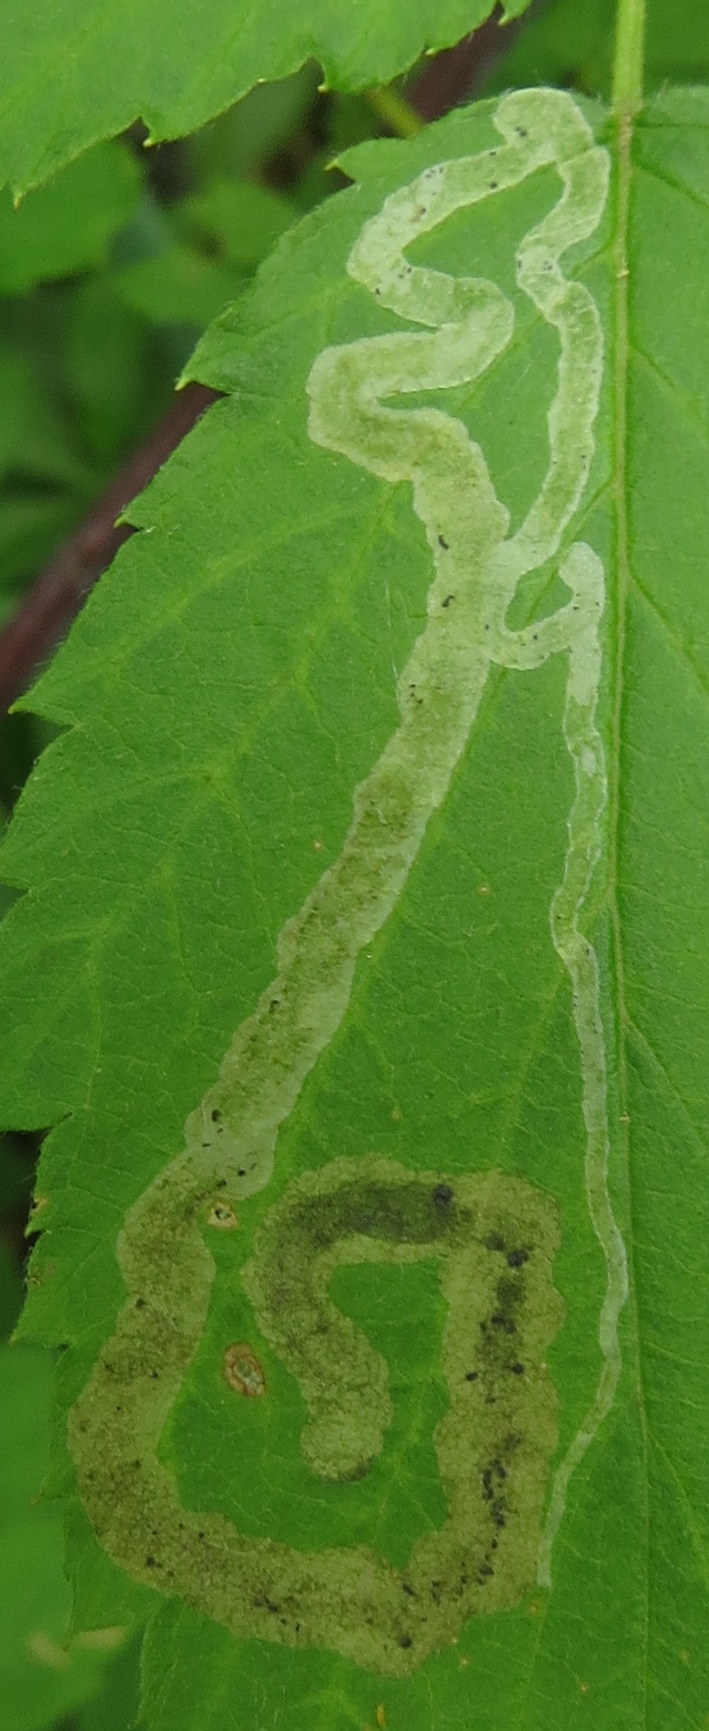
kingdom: Animalia
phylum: Arthropoda
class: Insecta
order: Diptera
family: Agromyzidae
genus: Agromyza
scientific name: Agromyza vockerothi
